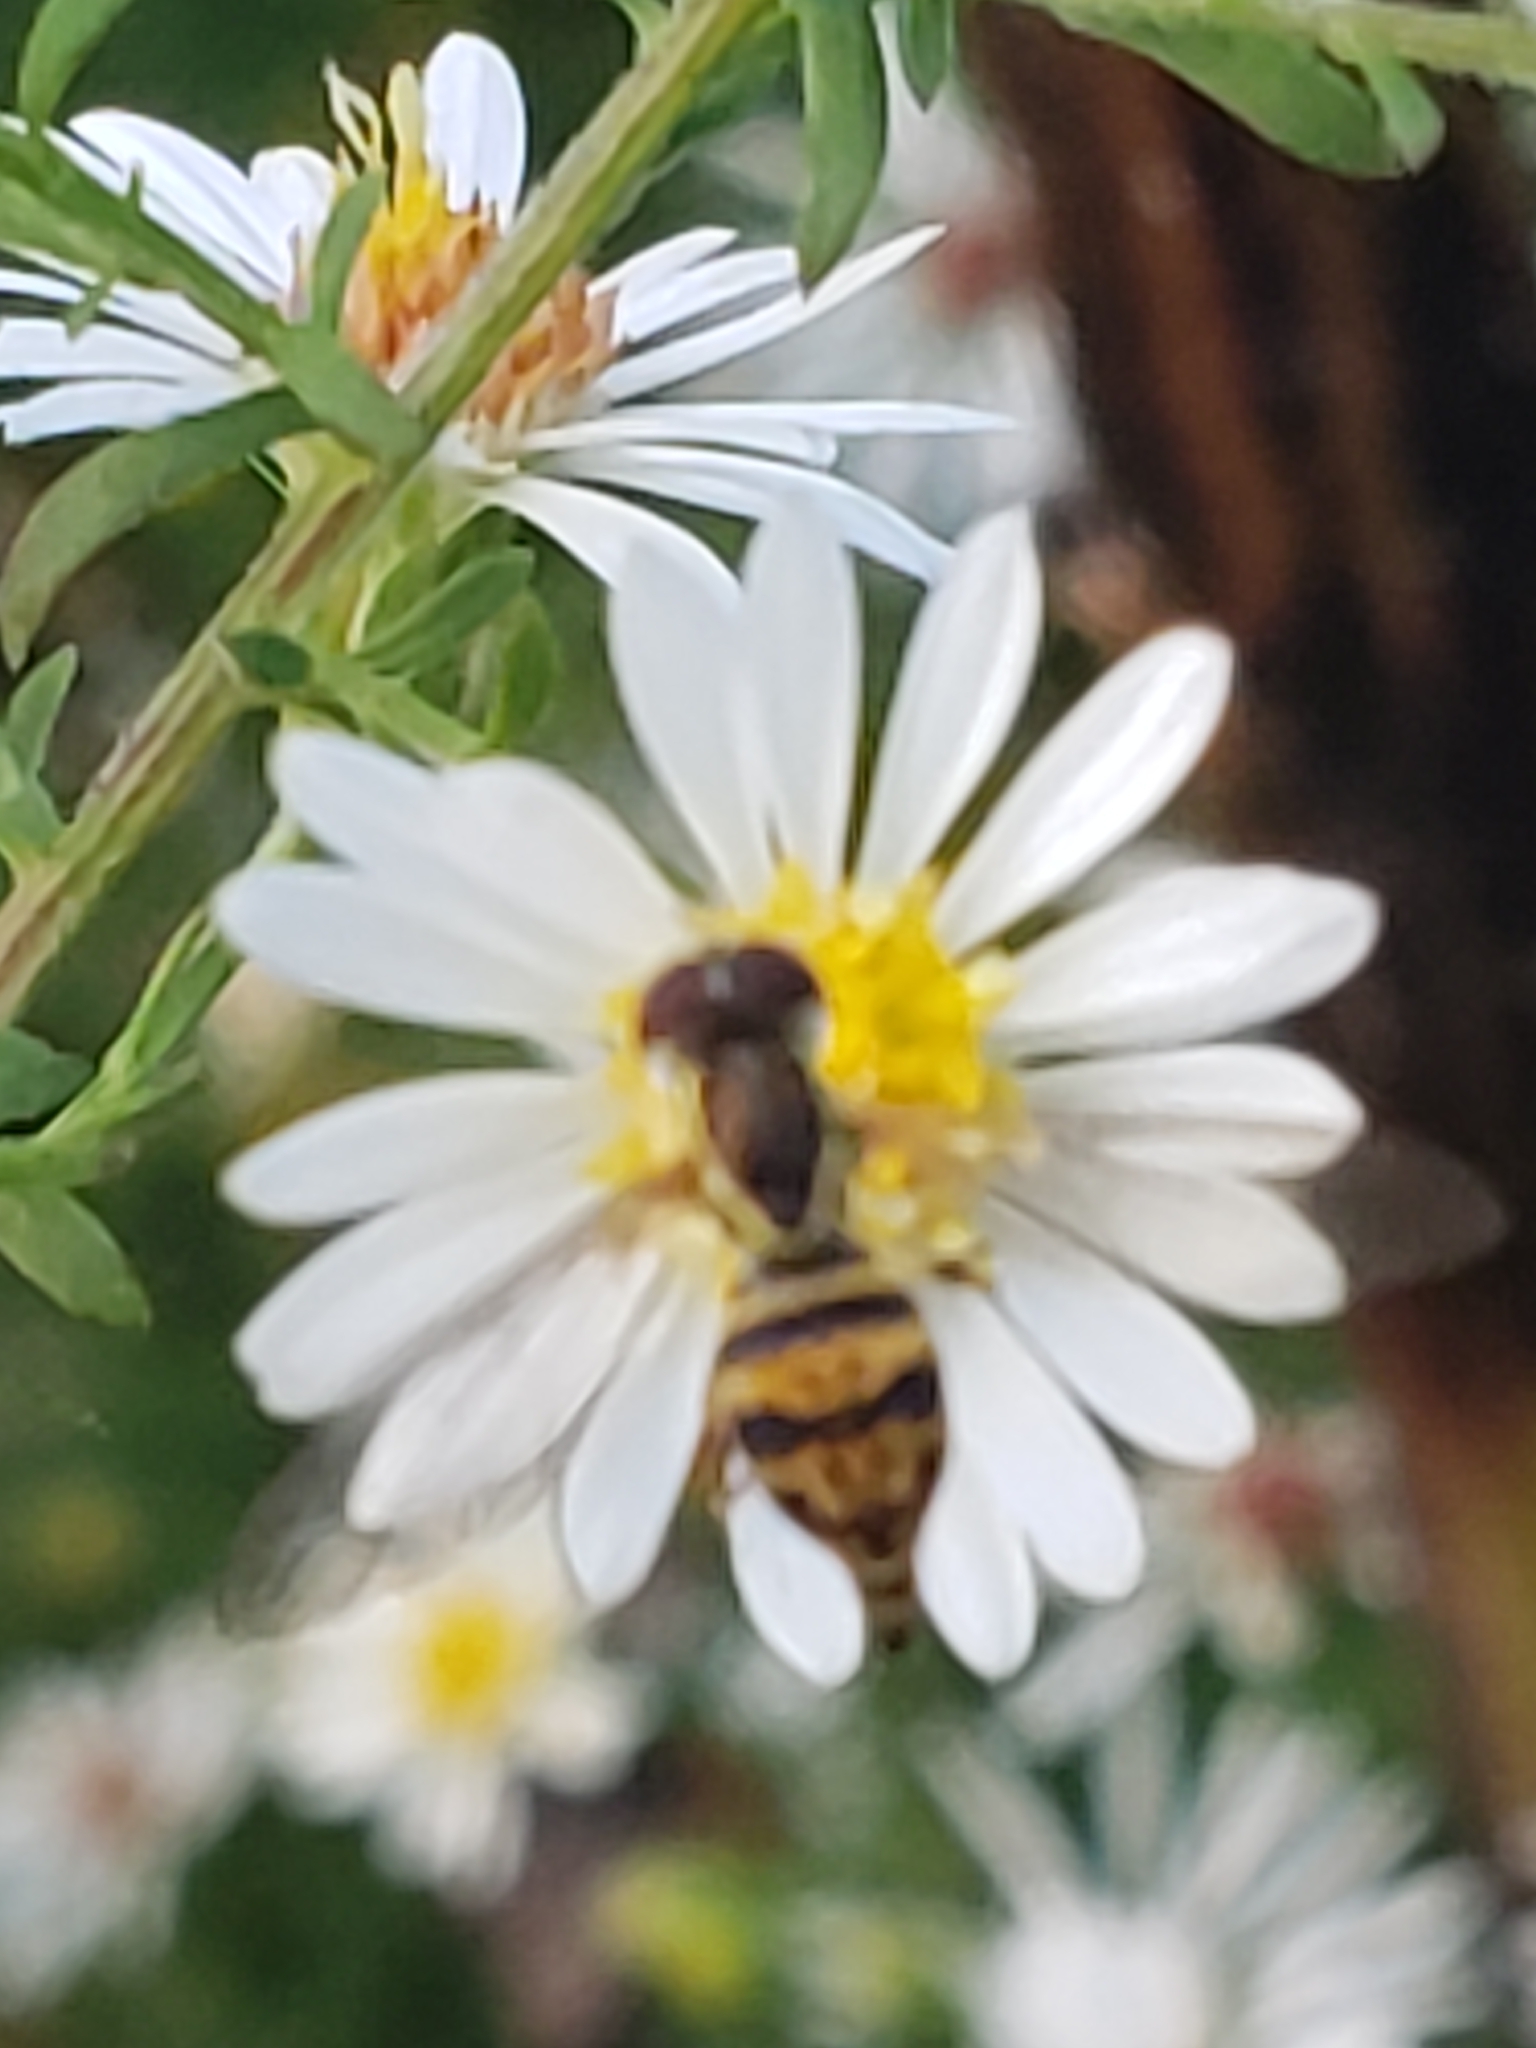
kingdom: Animalia
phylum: Arthropoda
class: Insecta
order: Diptera
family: Syrphidae
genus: Toxomerus
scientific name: Toxomerus geminatus
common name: Eastern calligrapher
